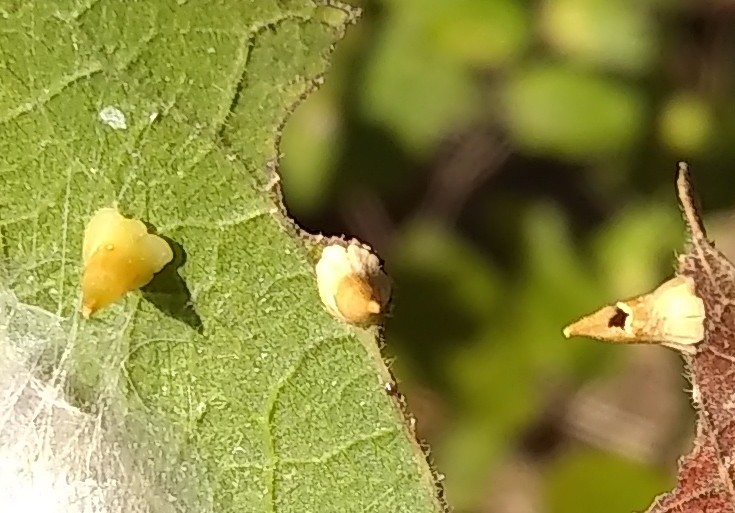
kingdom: Animalia
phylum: Arthropoda
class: Insecta
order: Diptera
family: Cecidomyiidae
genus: Celticecis
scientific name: Celticecis spiniformis
